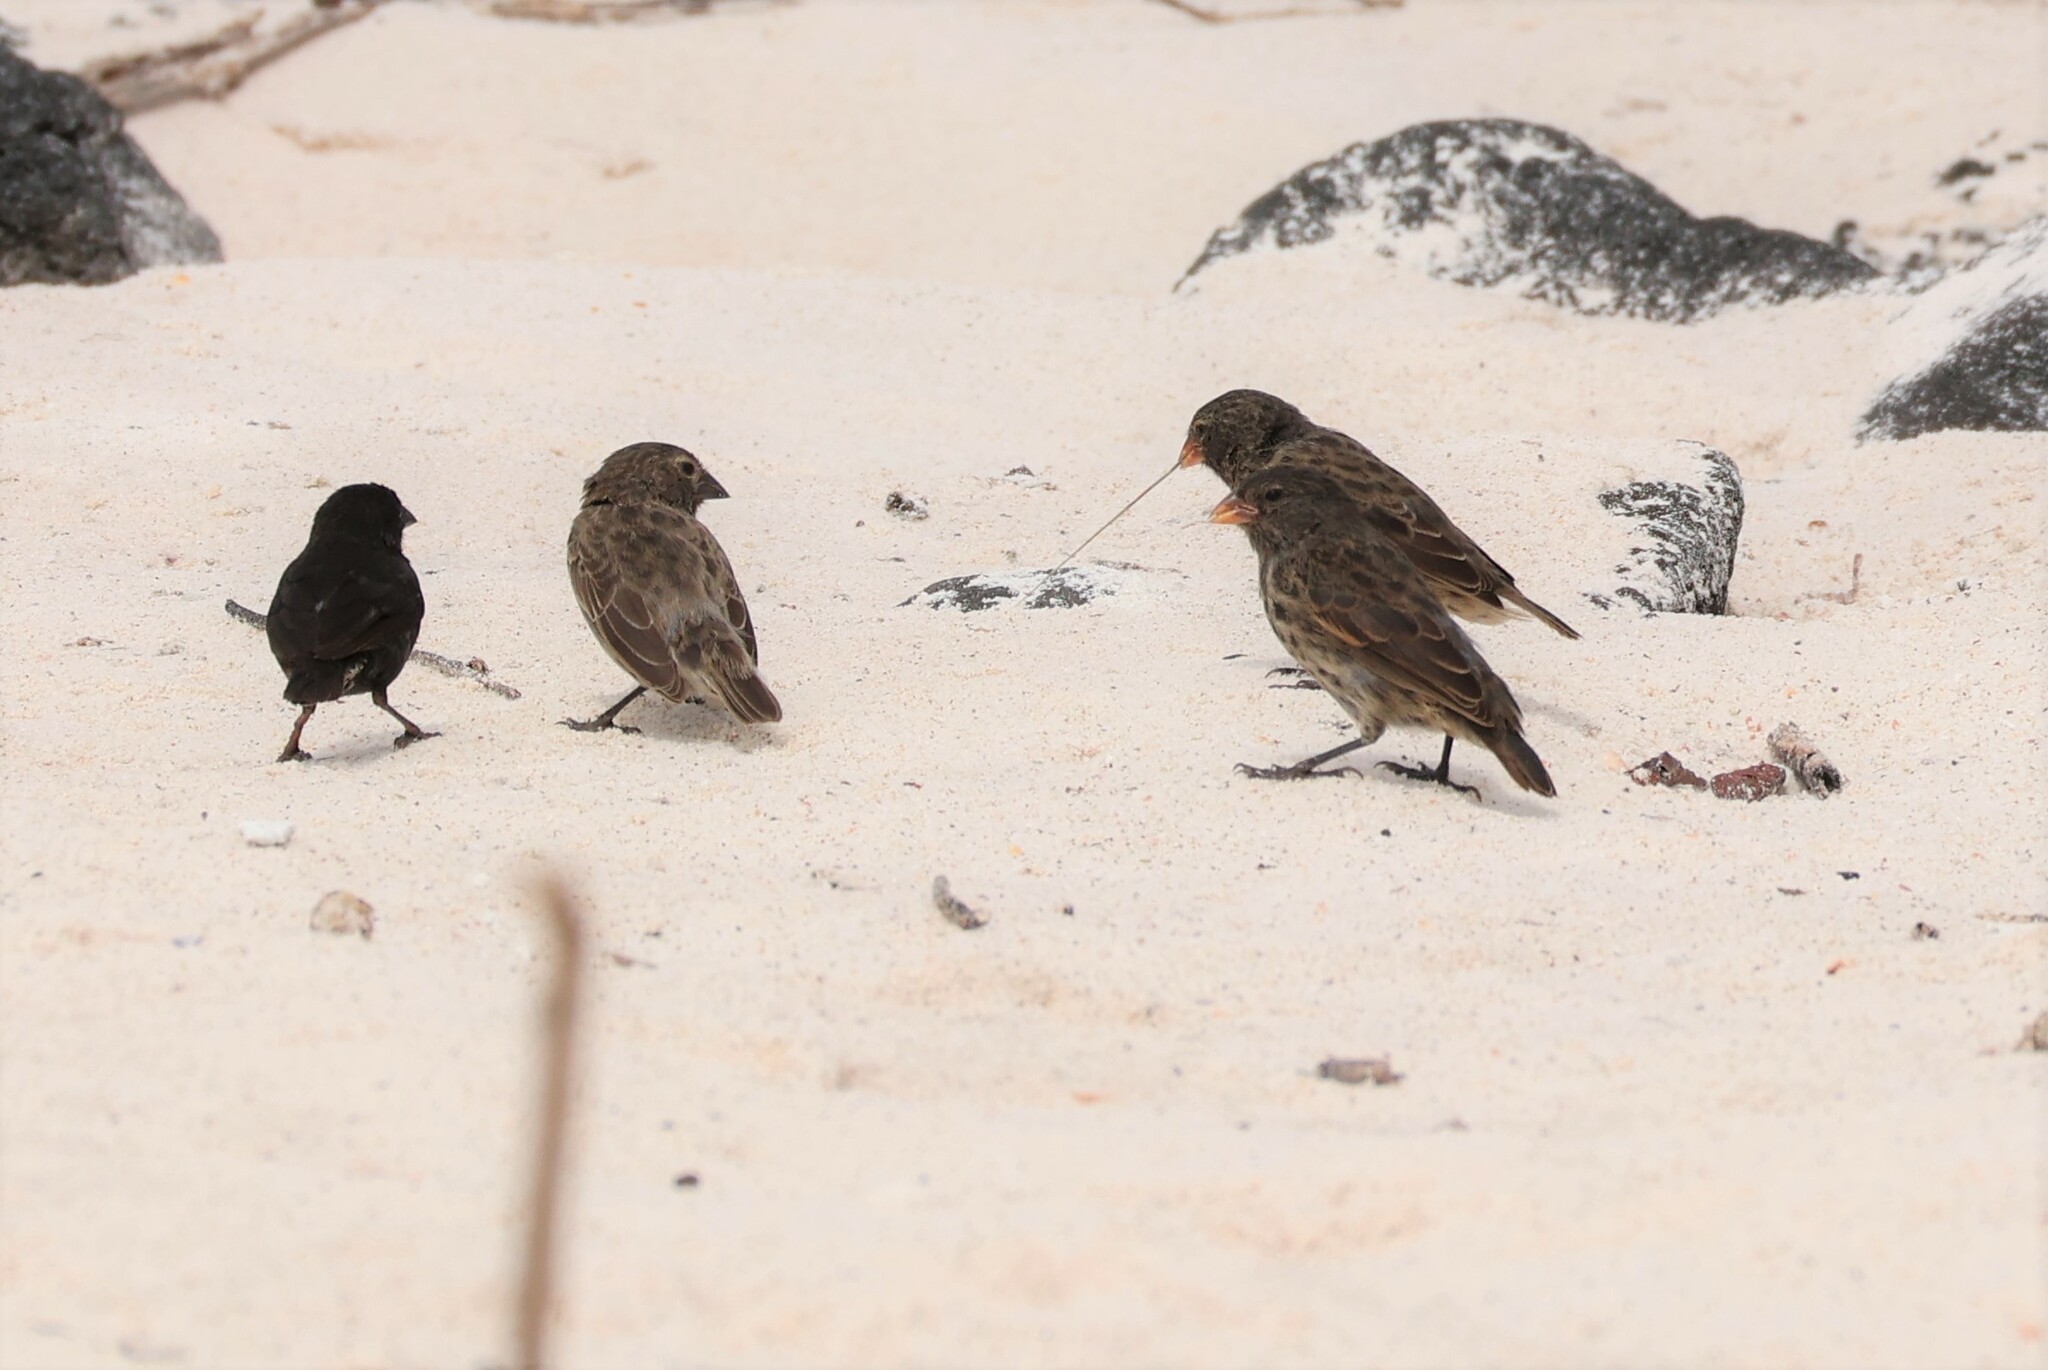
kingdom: Animalia
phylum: Chordata
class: Aves
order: Passeriformes
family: Thraupidae
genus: Geospiza
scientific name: Geospiza fuliginosa
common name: Small ground finch
